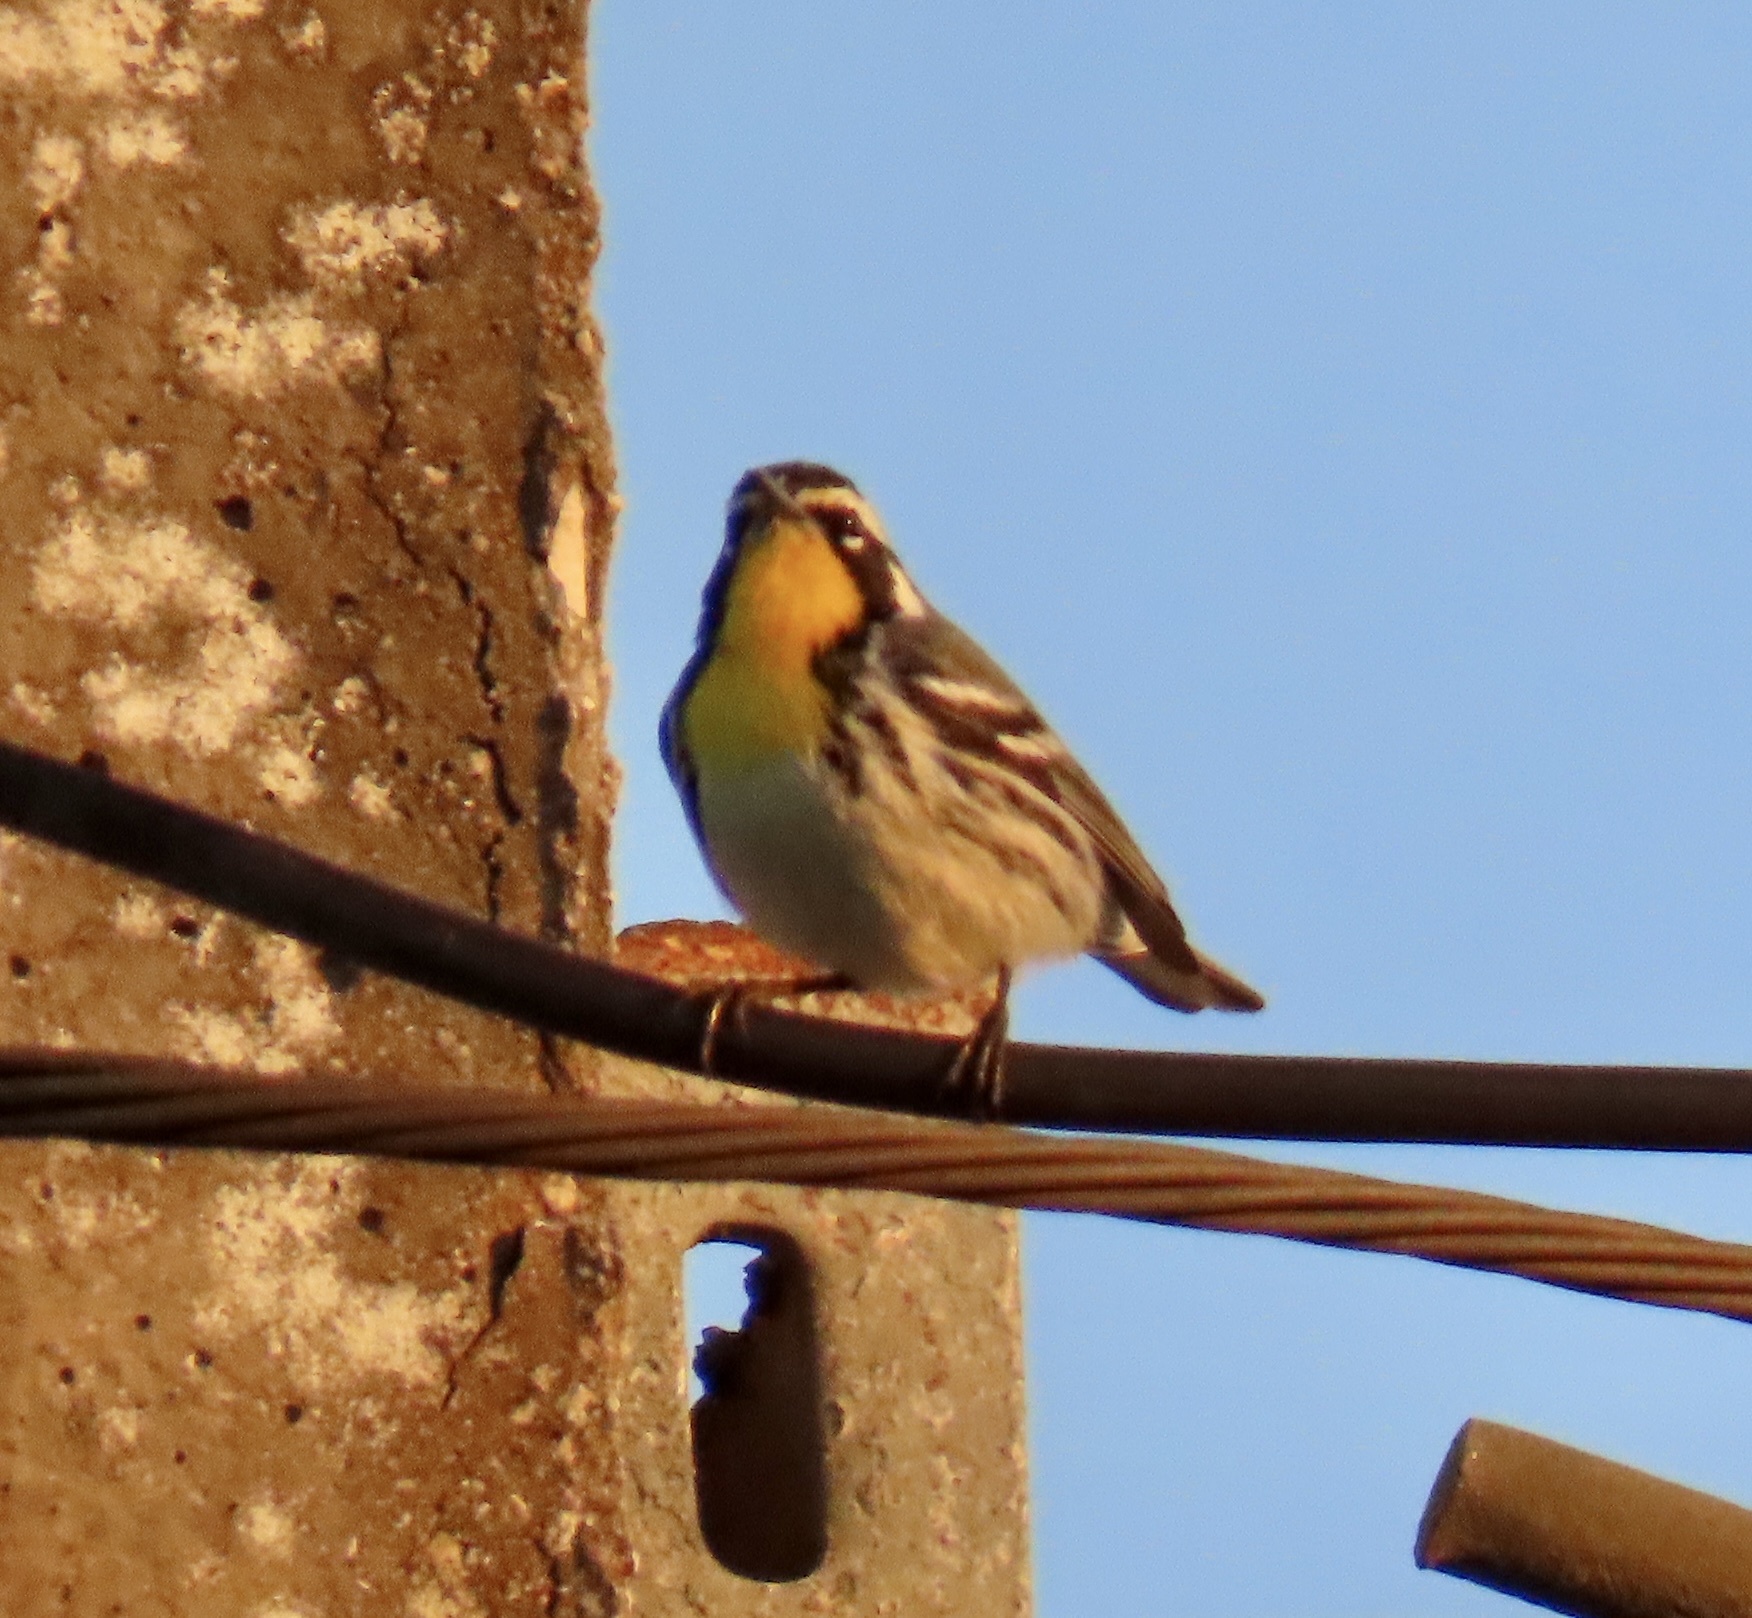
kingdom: Animalia
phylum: Chordata
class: Aves
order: Passeriformes
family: Parulidae
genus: Setophaga
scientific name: Setophaga dominica
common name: Yellow-throated warbler
